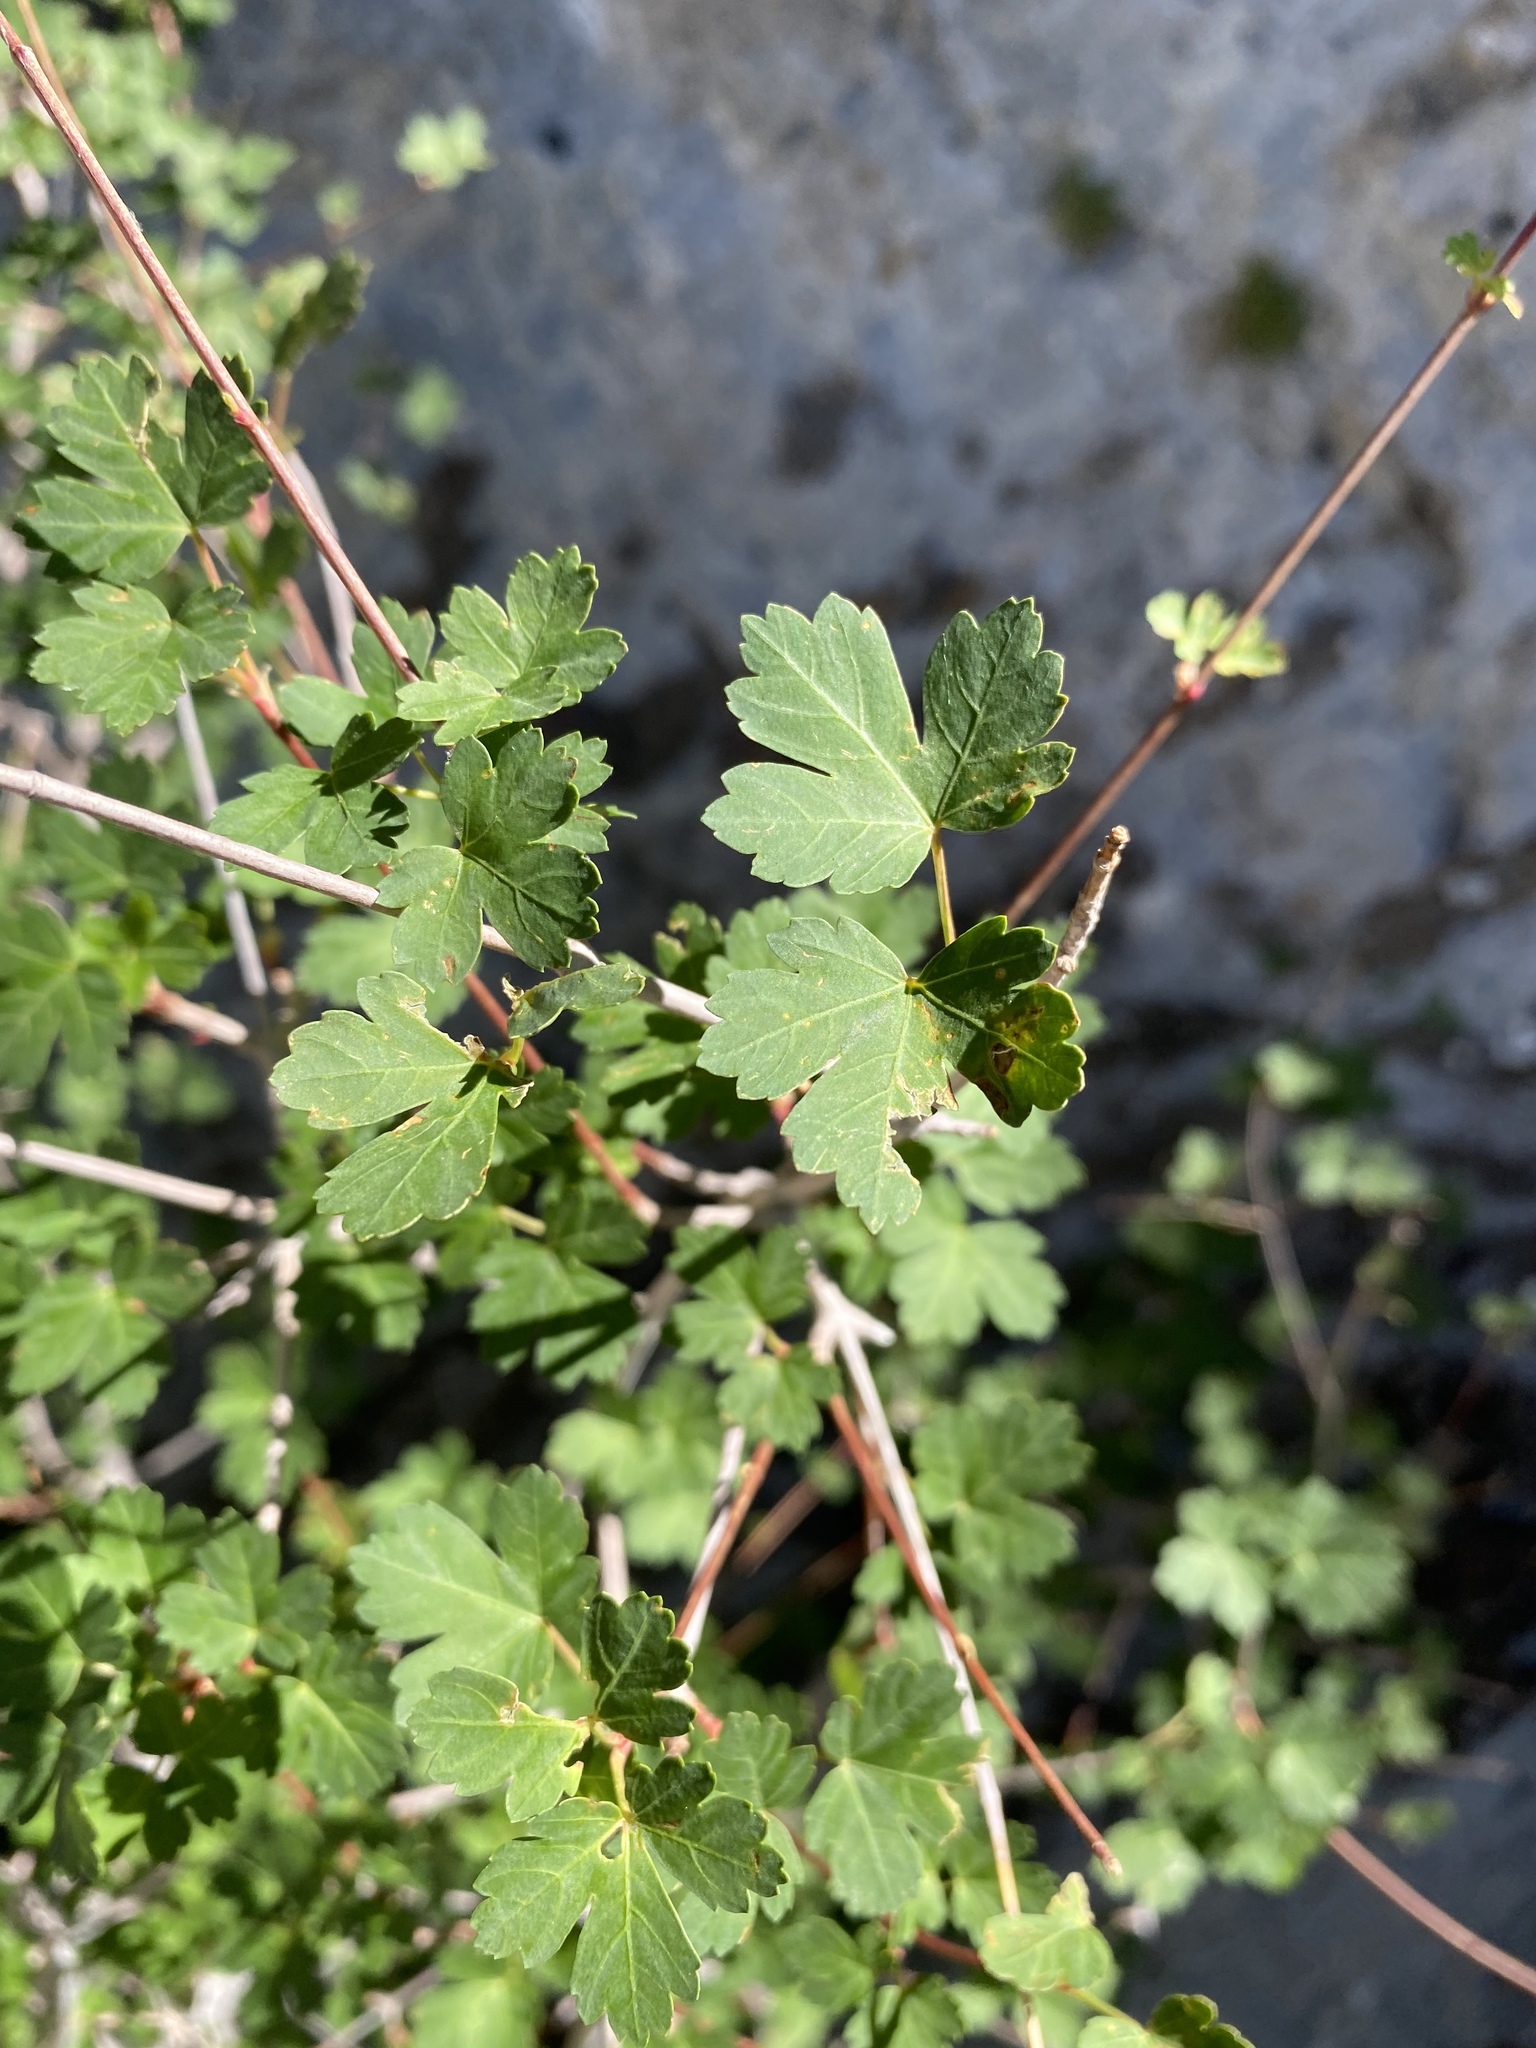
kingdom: Plantae
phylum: Tracheophyta
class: Magnoliopsida
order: Sapindales
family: Sapindaceae
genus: Acer
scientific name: Acer glabrum
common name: Rocky mountain maple
